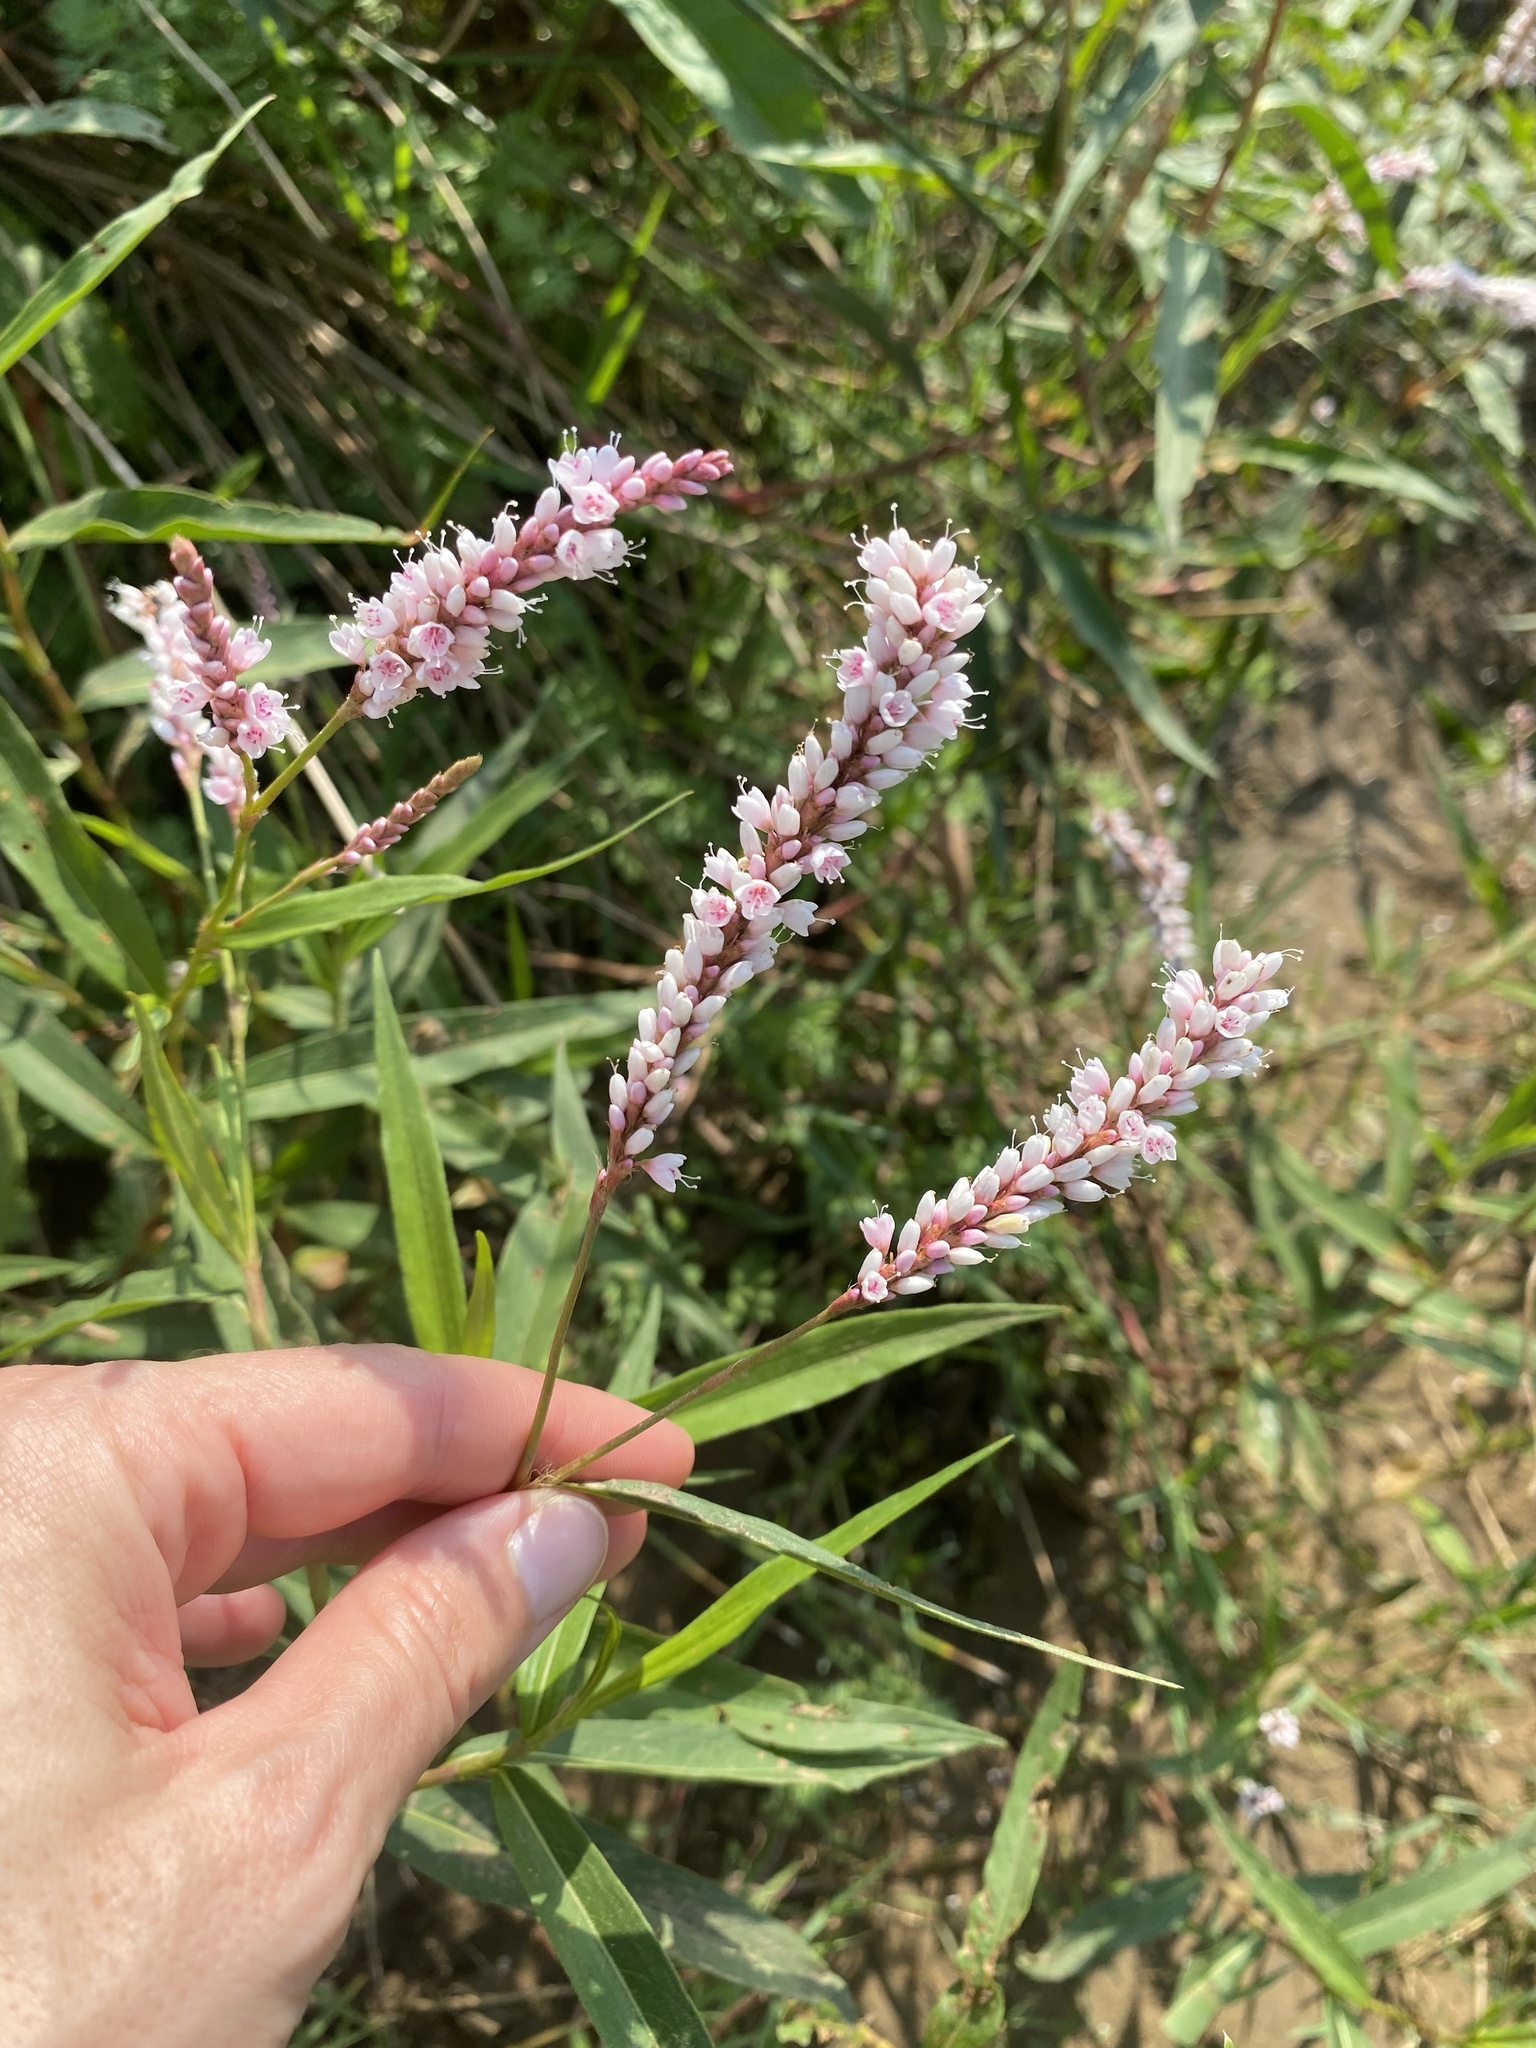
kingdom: Plantae
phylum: Tracheophyta
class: Magnoliopsida
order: Caryophyllales
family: Polygonaceae
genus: Persicaria
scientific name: Persicaria madagascariensis
